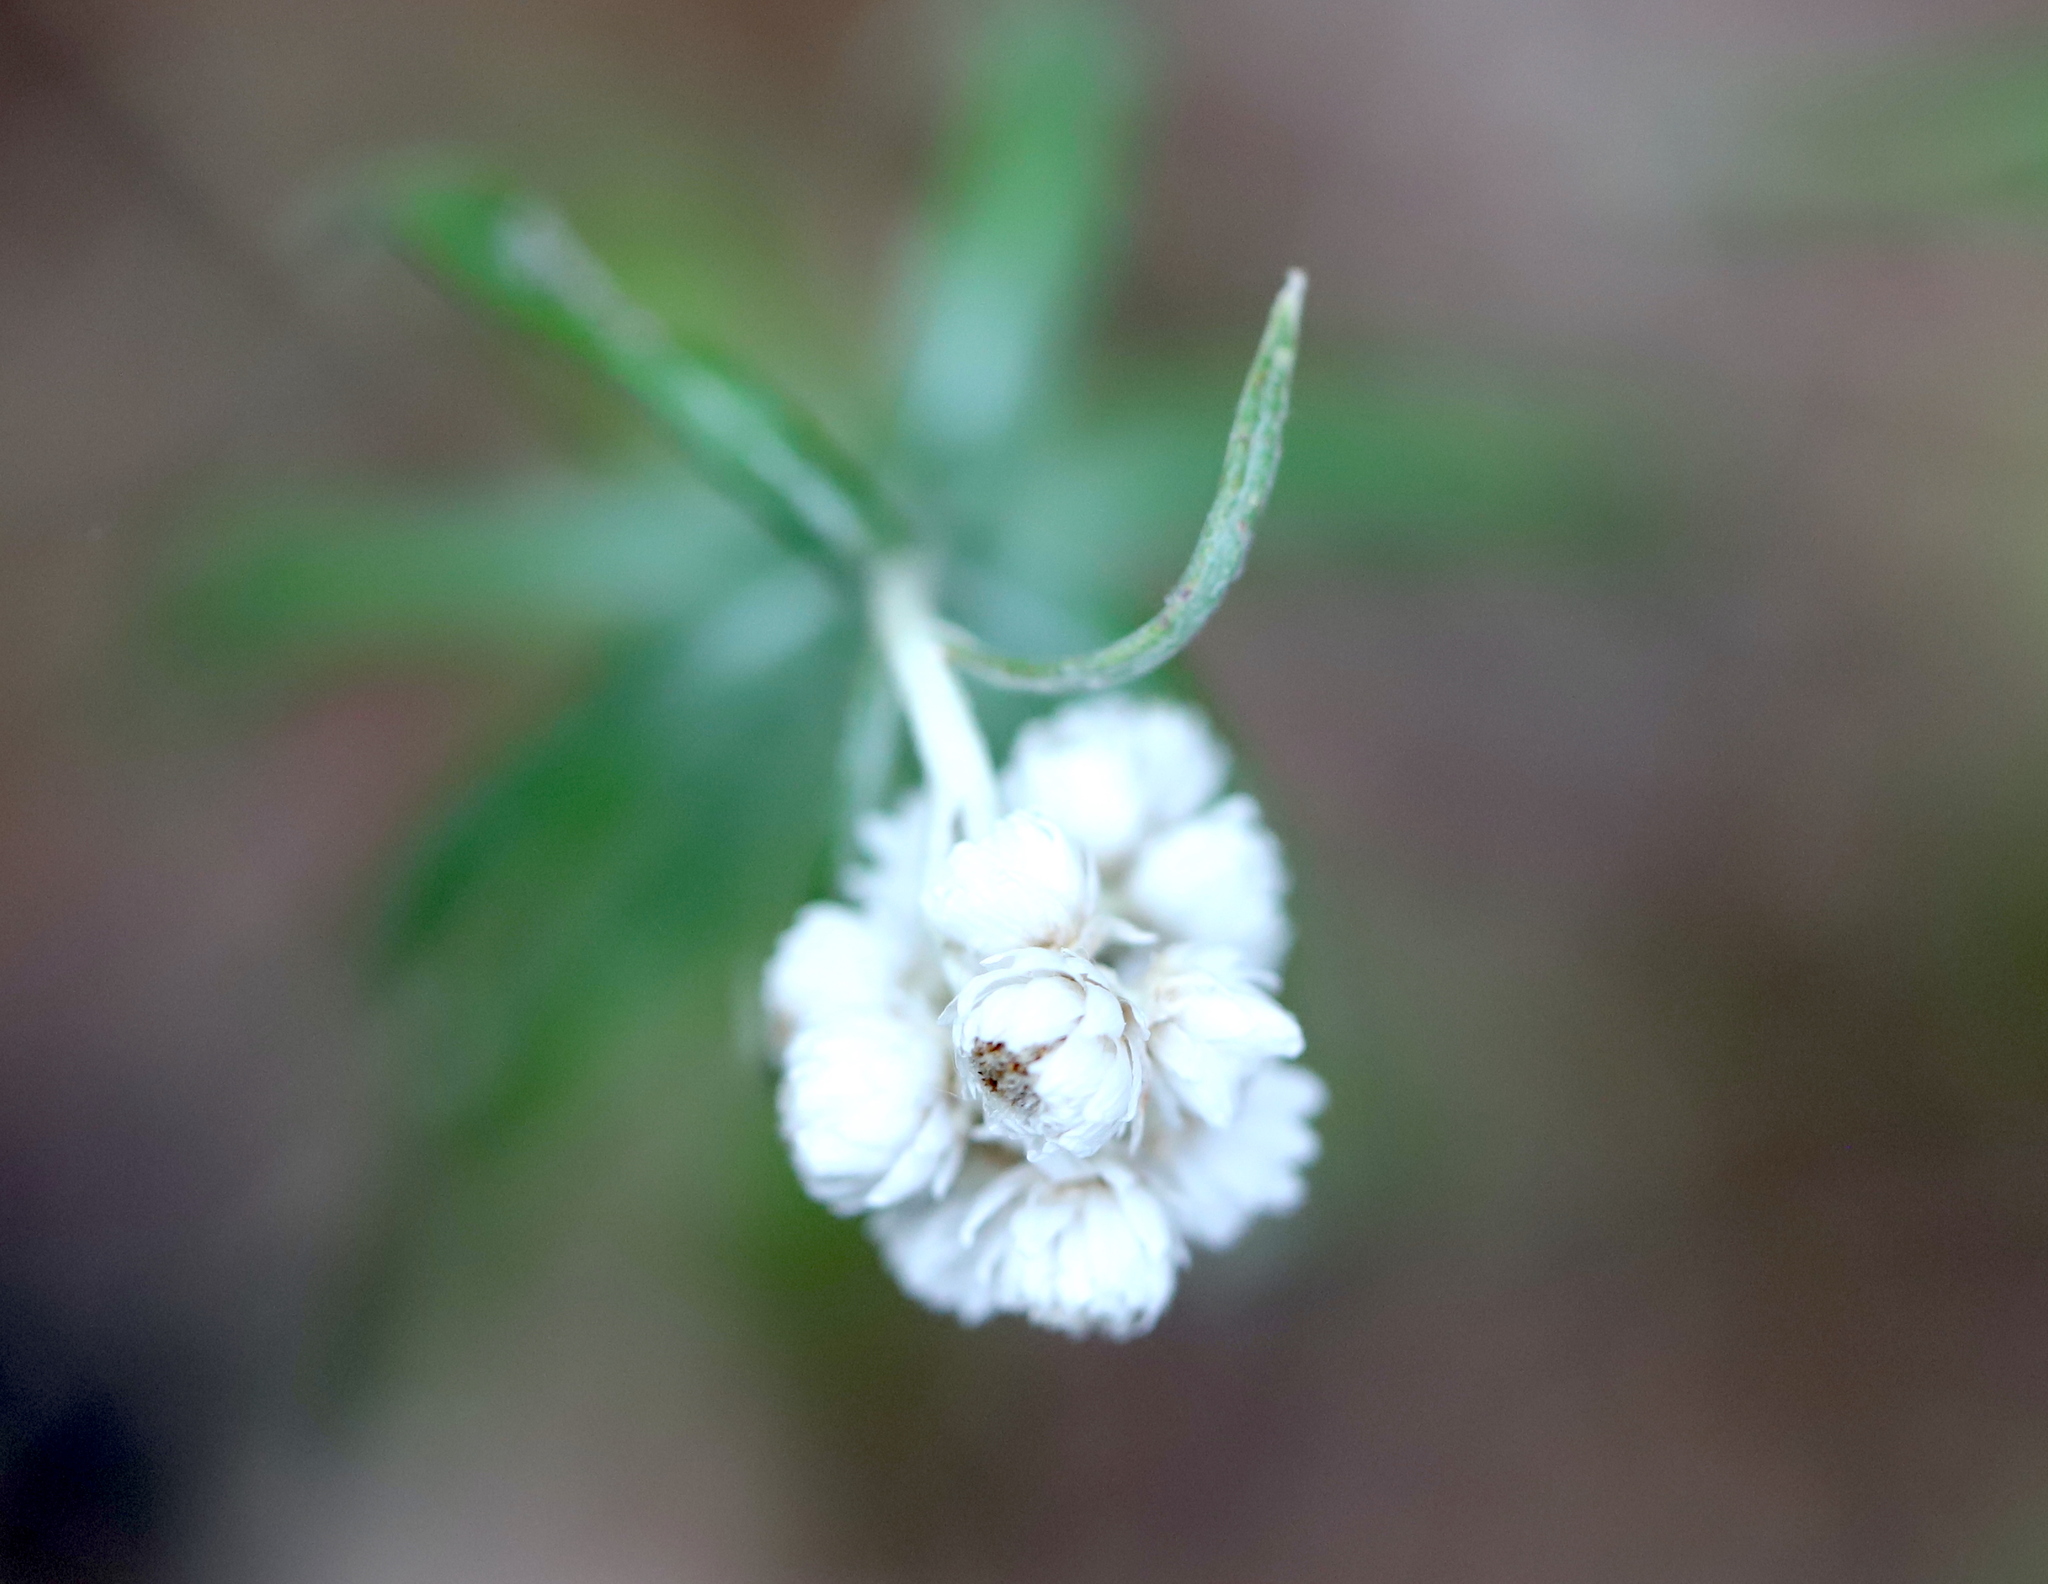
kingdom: Plantae
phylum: Tracheophyta
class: Magnoliopsida
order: Asterales
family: Asteraceae
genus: Anaphalis
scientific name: Anaphalis margaritacea
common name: Pearly everlasting
